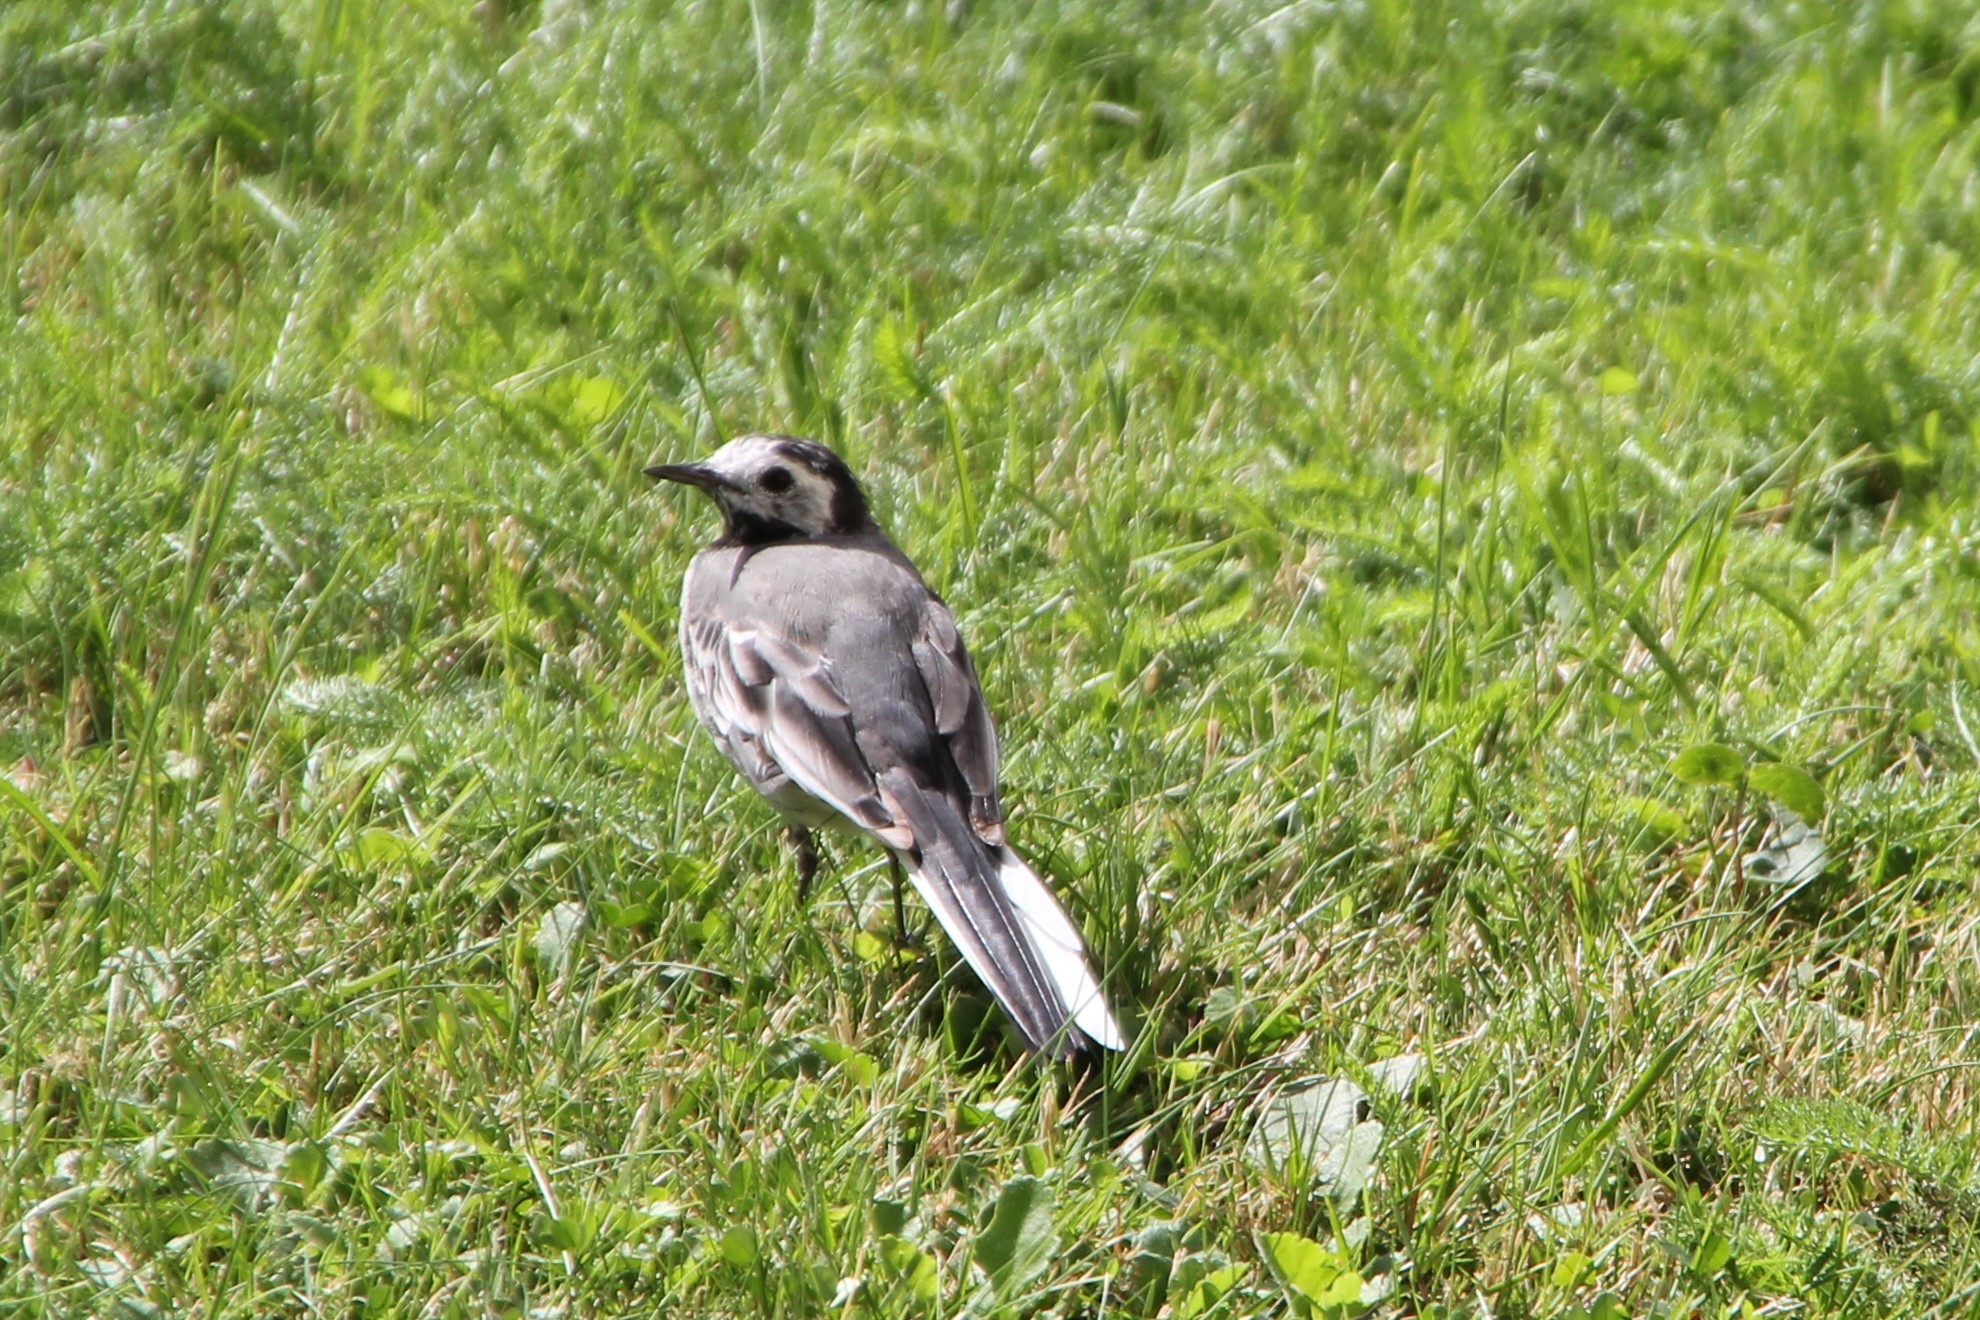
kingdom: Animalia
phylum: Chordata
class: Aves
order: Passeriformes
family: Motacillidae
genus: Motacilla
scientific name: Motacilla alba
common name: White wagtail
